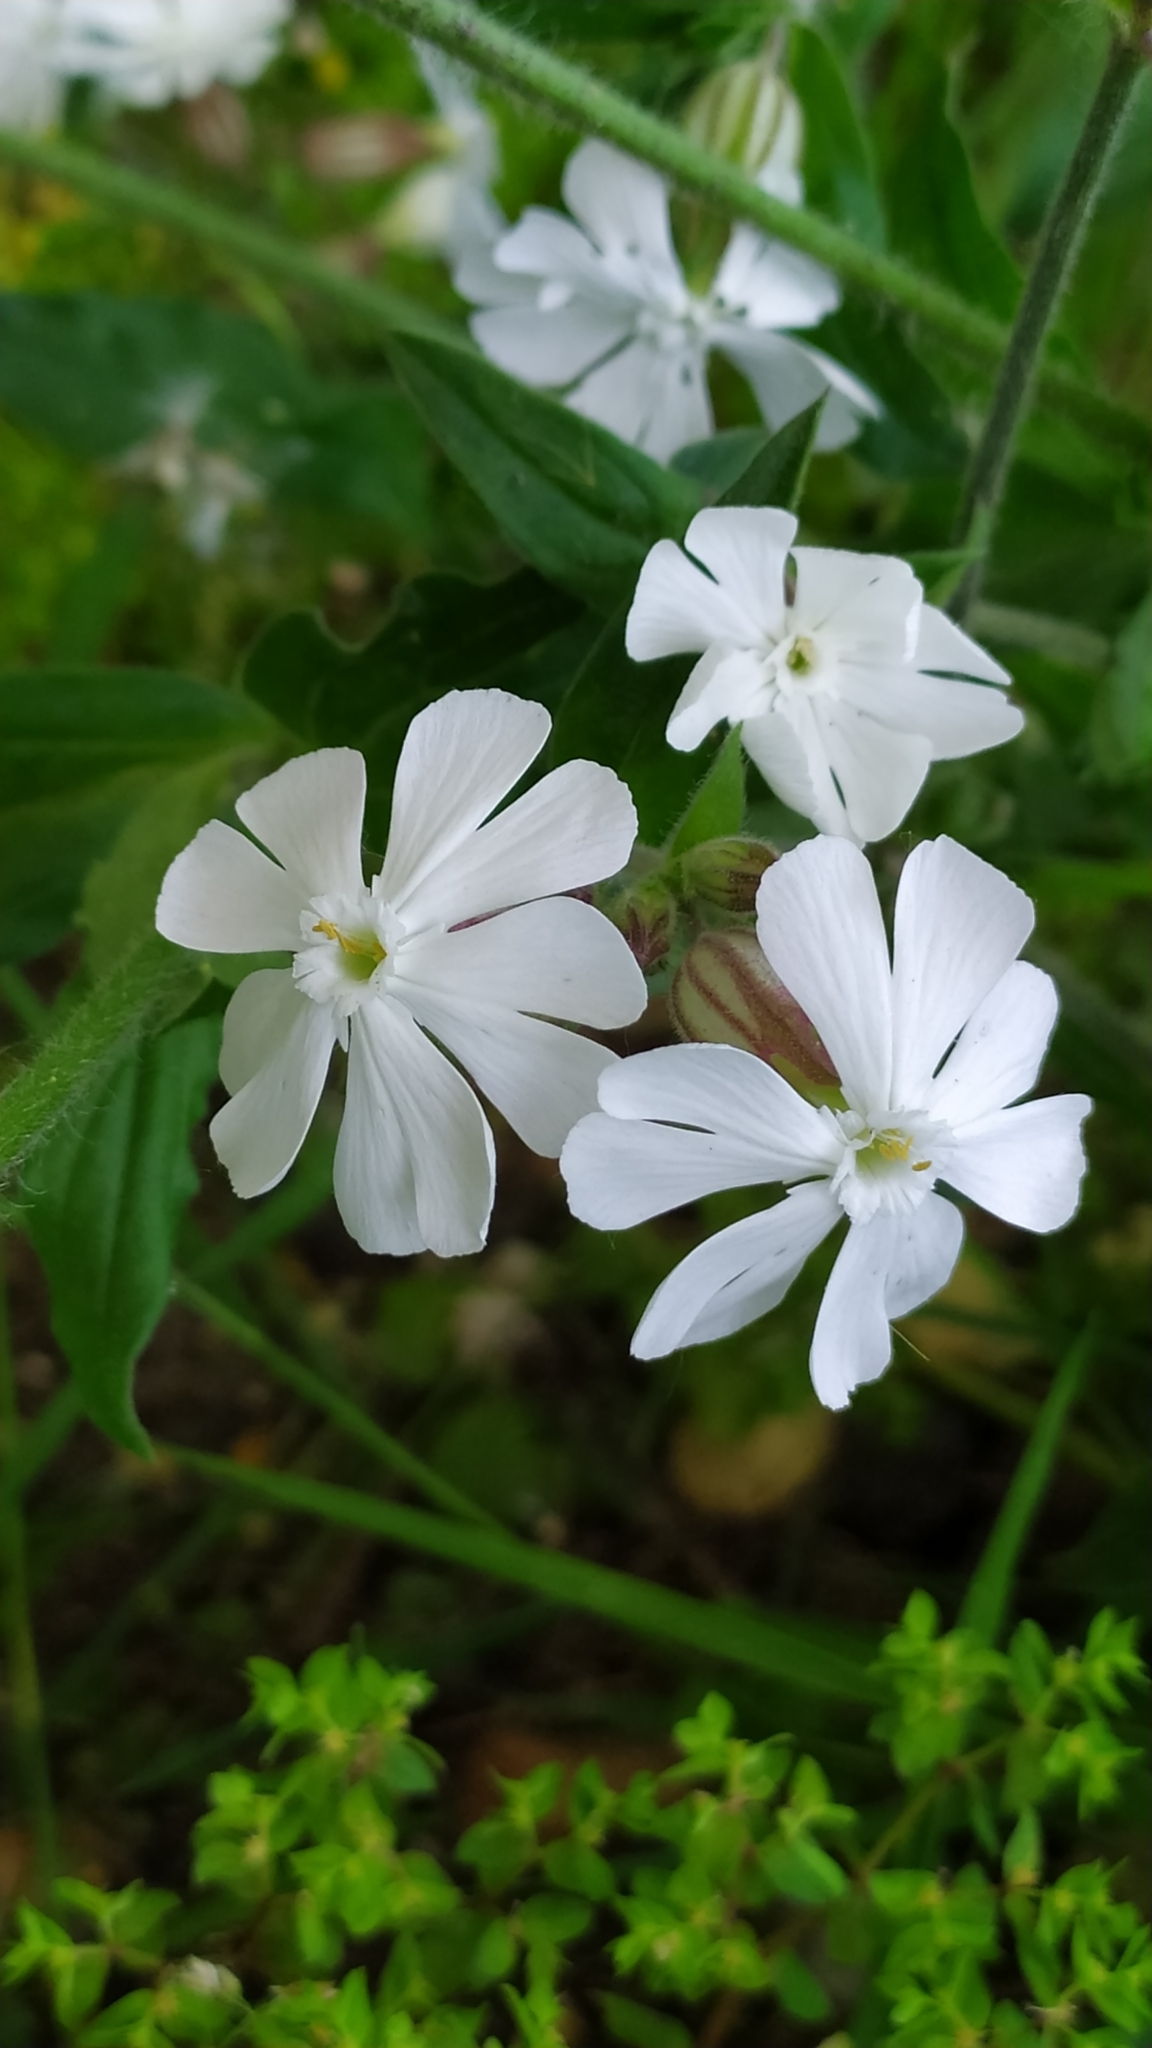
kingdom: Plantae
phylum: Tracheophyta
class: Magnoliopsida
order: Caryophyllales
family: Caryophyllaceae
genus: Silene
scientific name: Silene latifolia
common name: White campion
